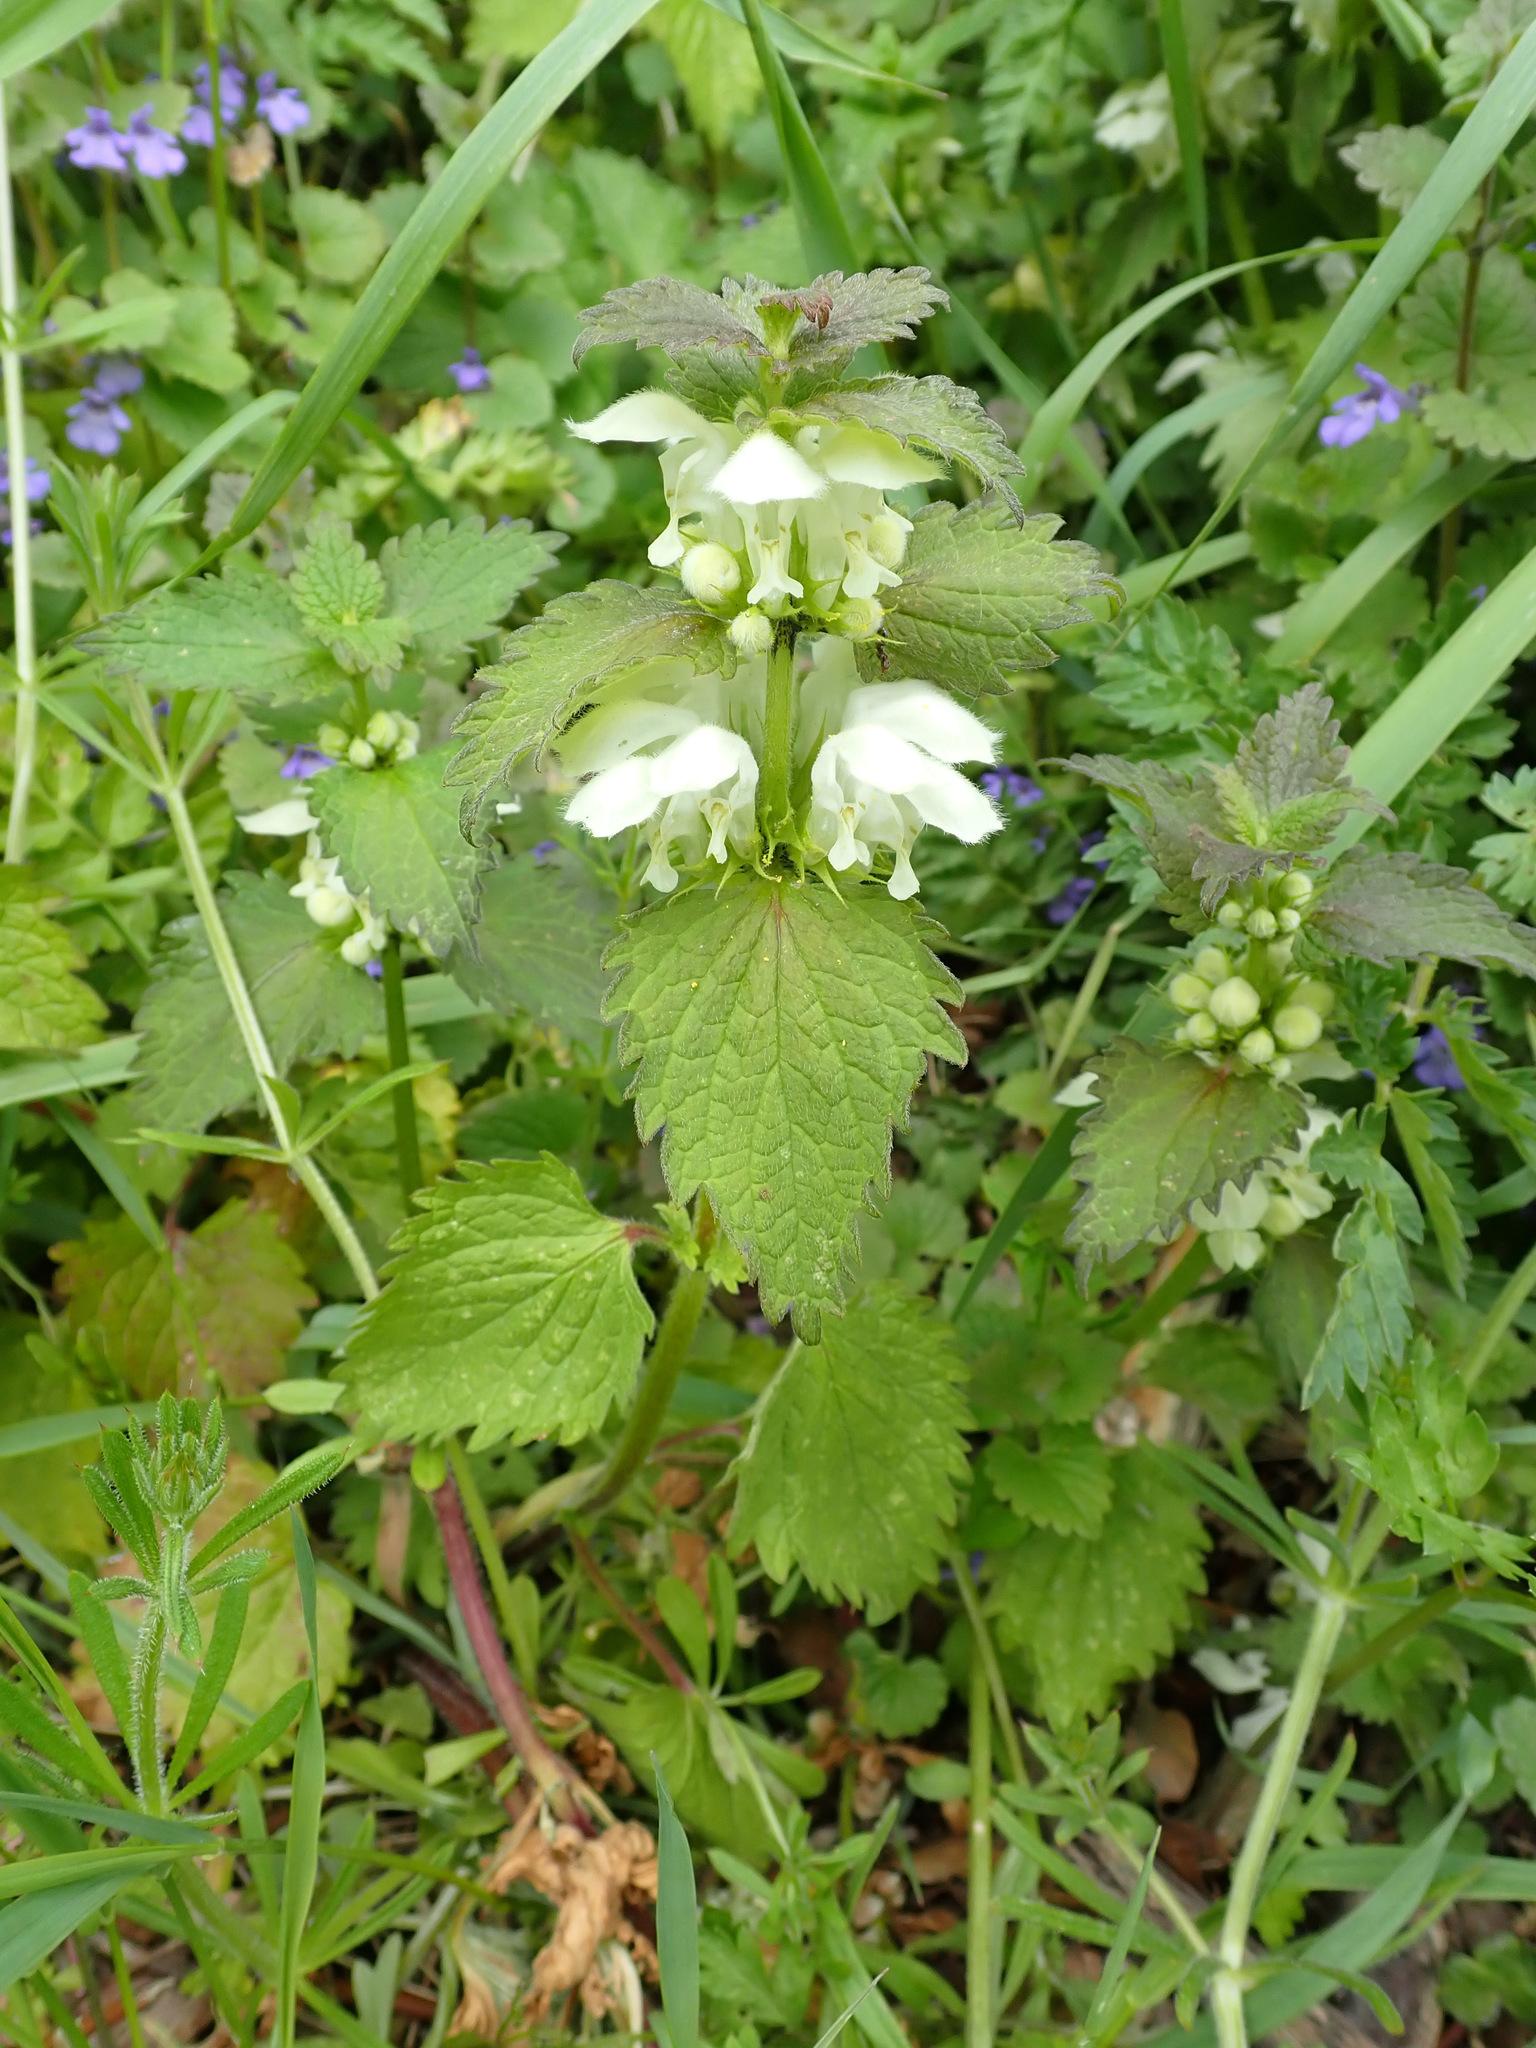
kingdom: Plantae
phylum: Tracheophyta
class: Magnoliopsida
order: Lamiales
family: Lamiaceae
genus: Lamium
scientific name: Lamium album
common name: White dead-nettle
